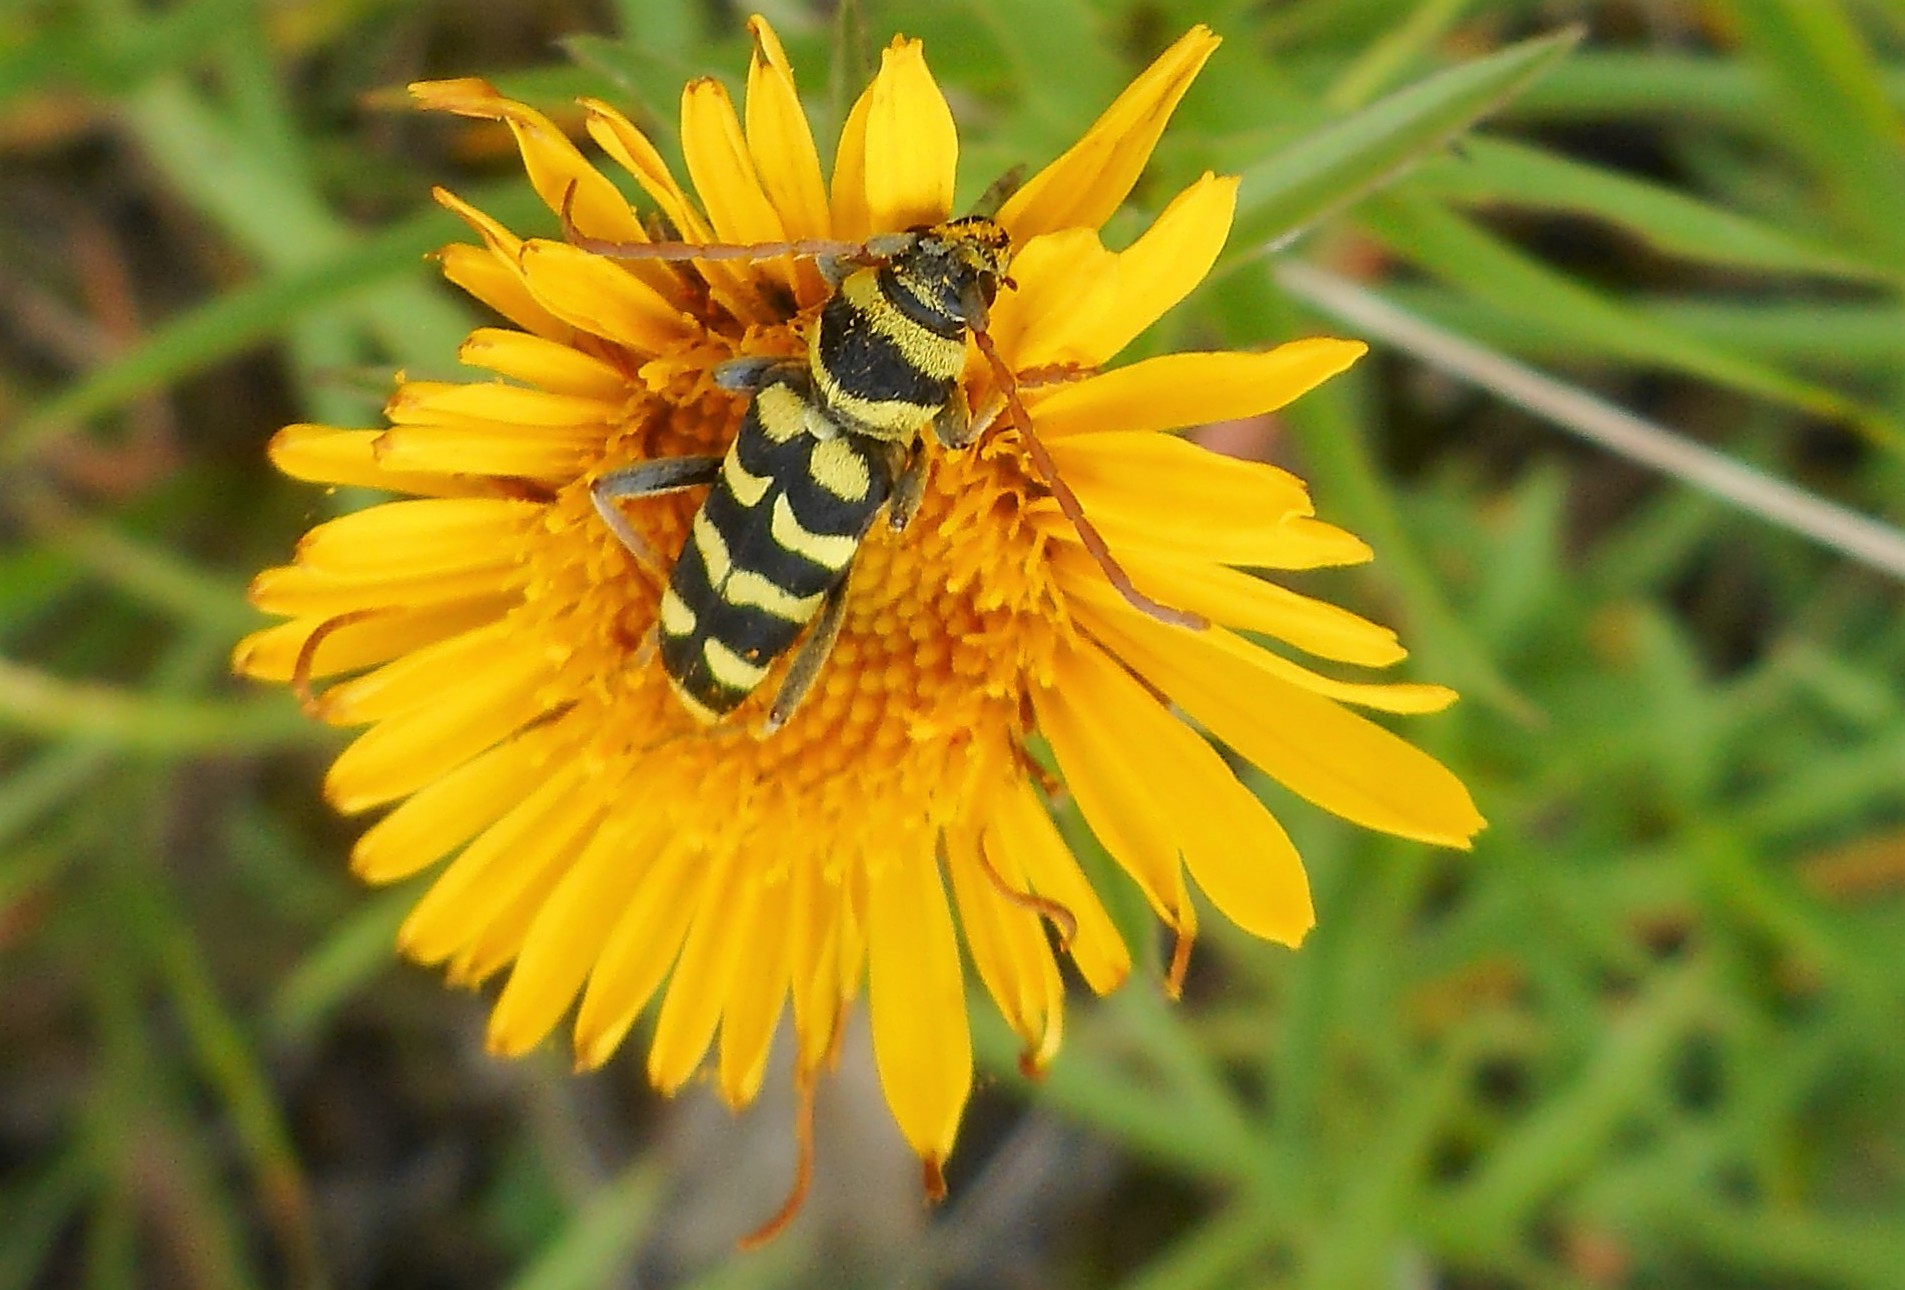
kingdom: Animalia
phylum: Arthropoda
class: Insecta
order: Coleoptera
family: Cerambycidae
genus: Plagionotus
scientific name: Plagionotus floralis
